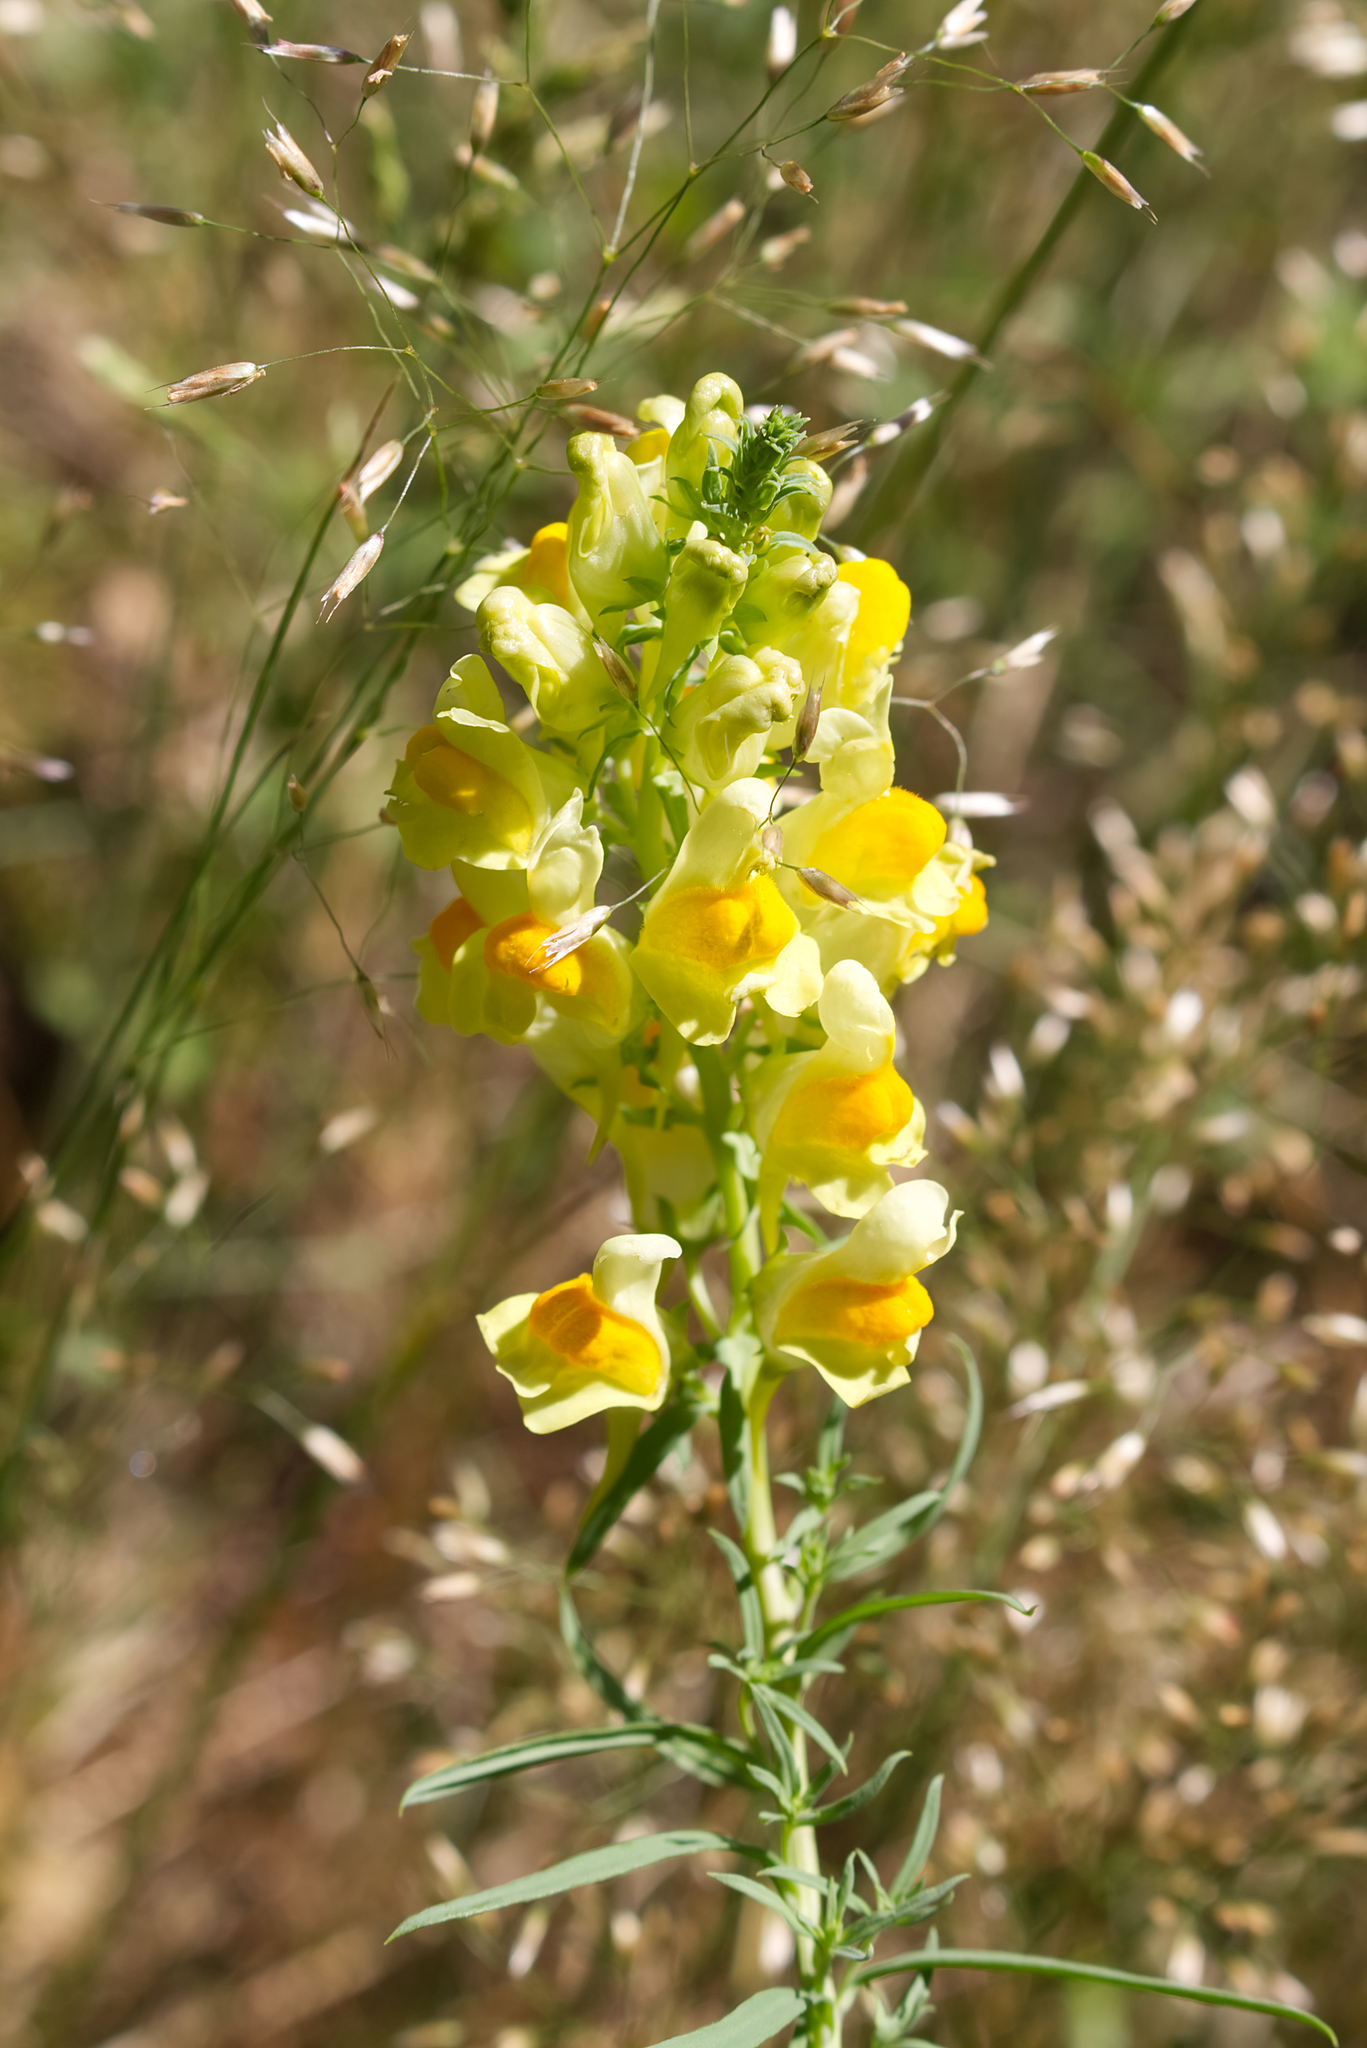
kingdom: Plantae
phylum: Tracheophyta
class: Magnoliopsida
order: Lamiales
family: Plantaginaceae
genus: Linaria
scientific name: Linaria vulgaris
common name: Butter and eggs
